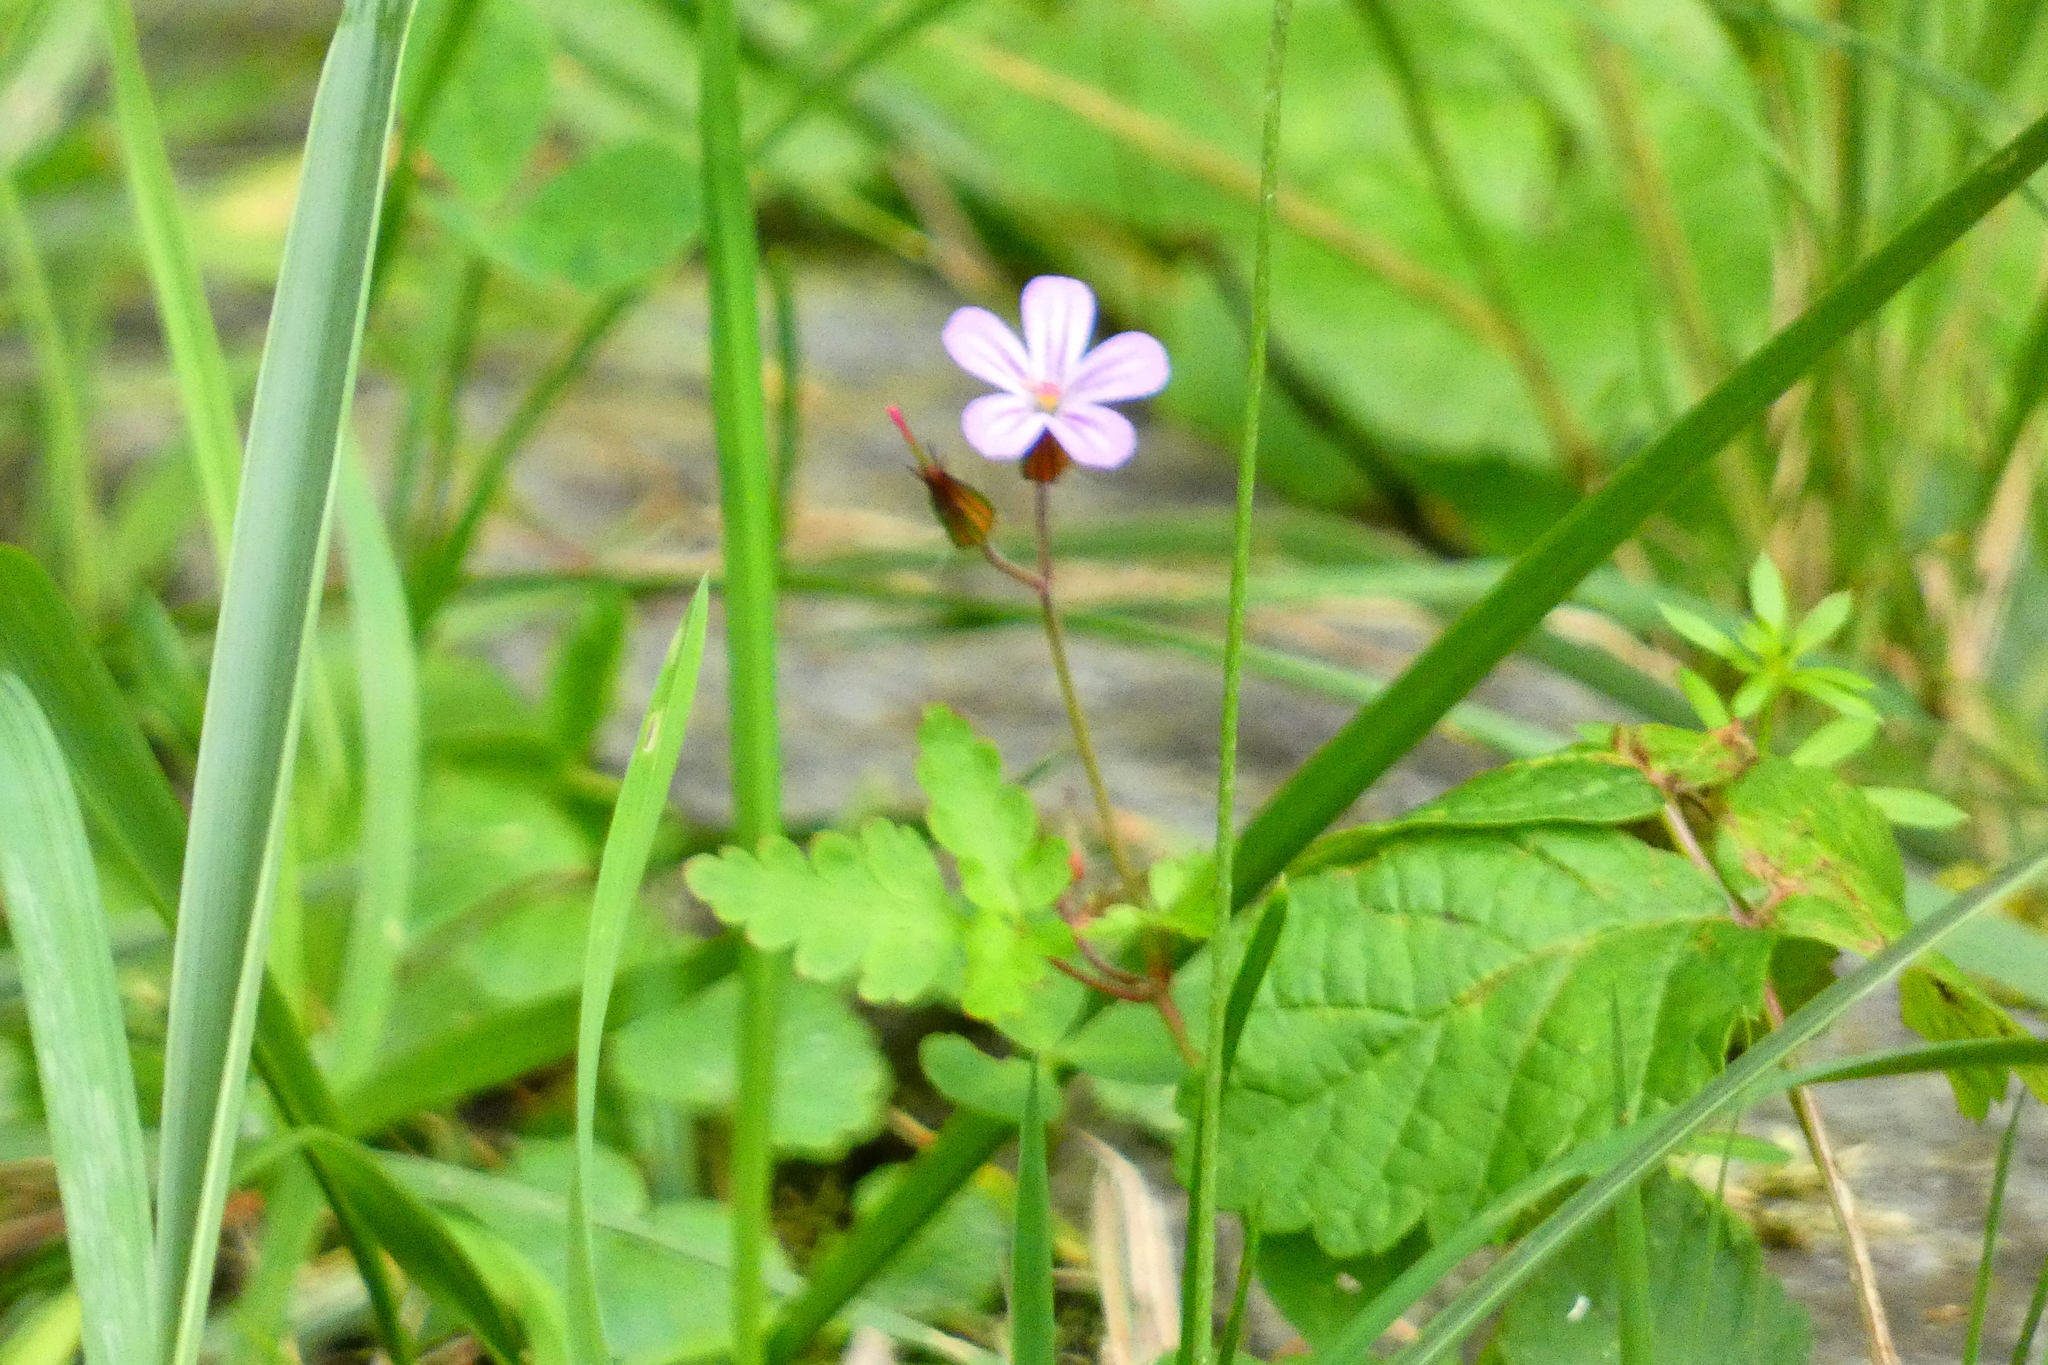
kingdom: Plantae
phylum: Tracheophyta
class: Magnoliopsida
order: Geraniales
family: Geraniaceae
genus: Geranium
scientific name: Geranium robertianum
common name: Herb-robert
